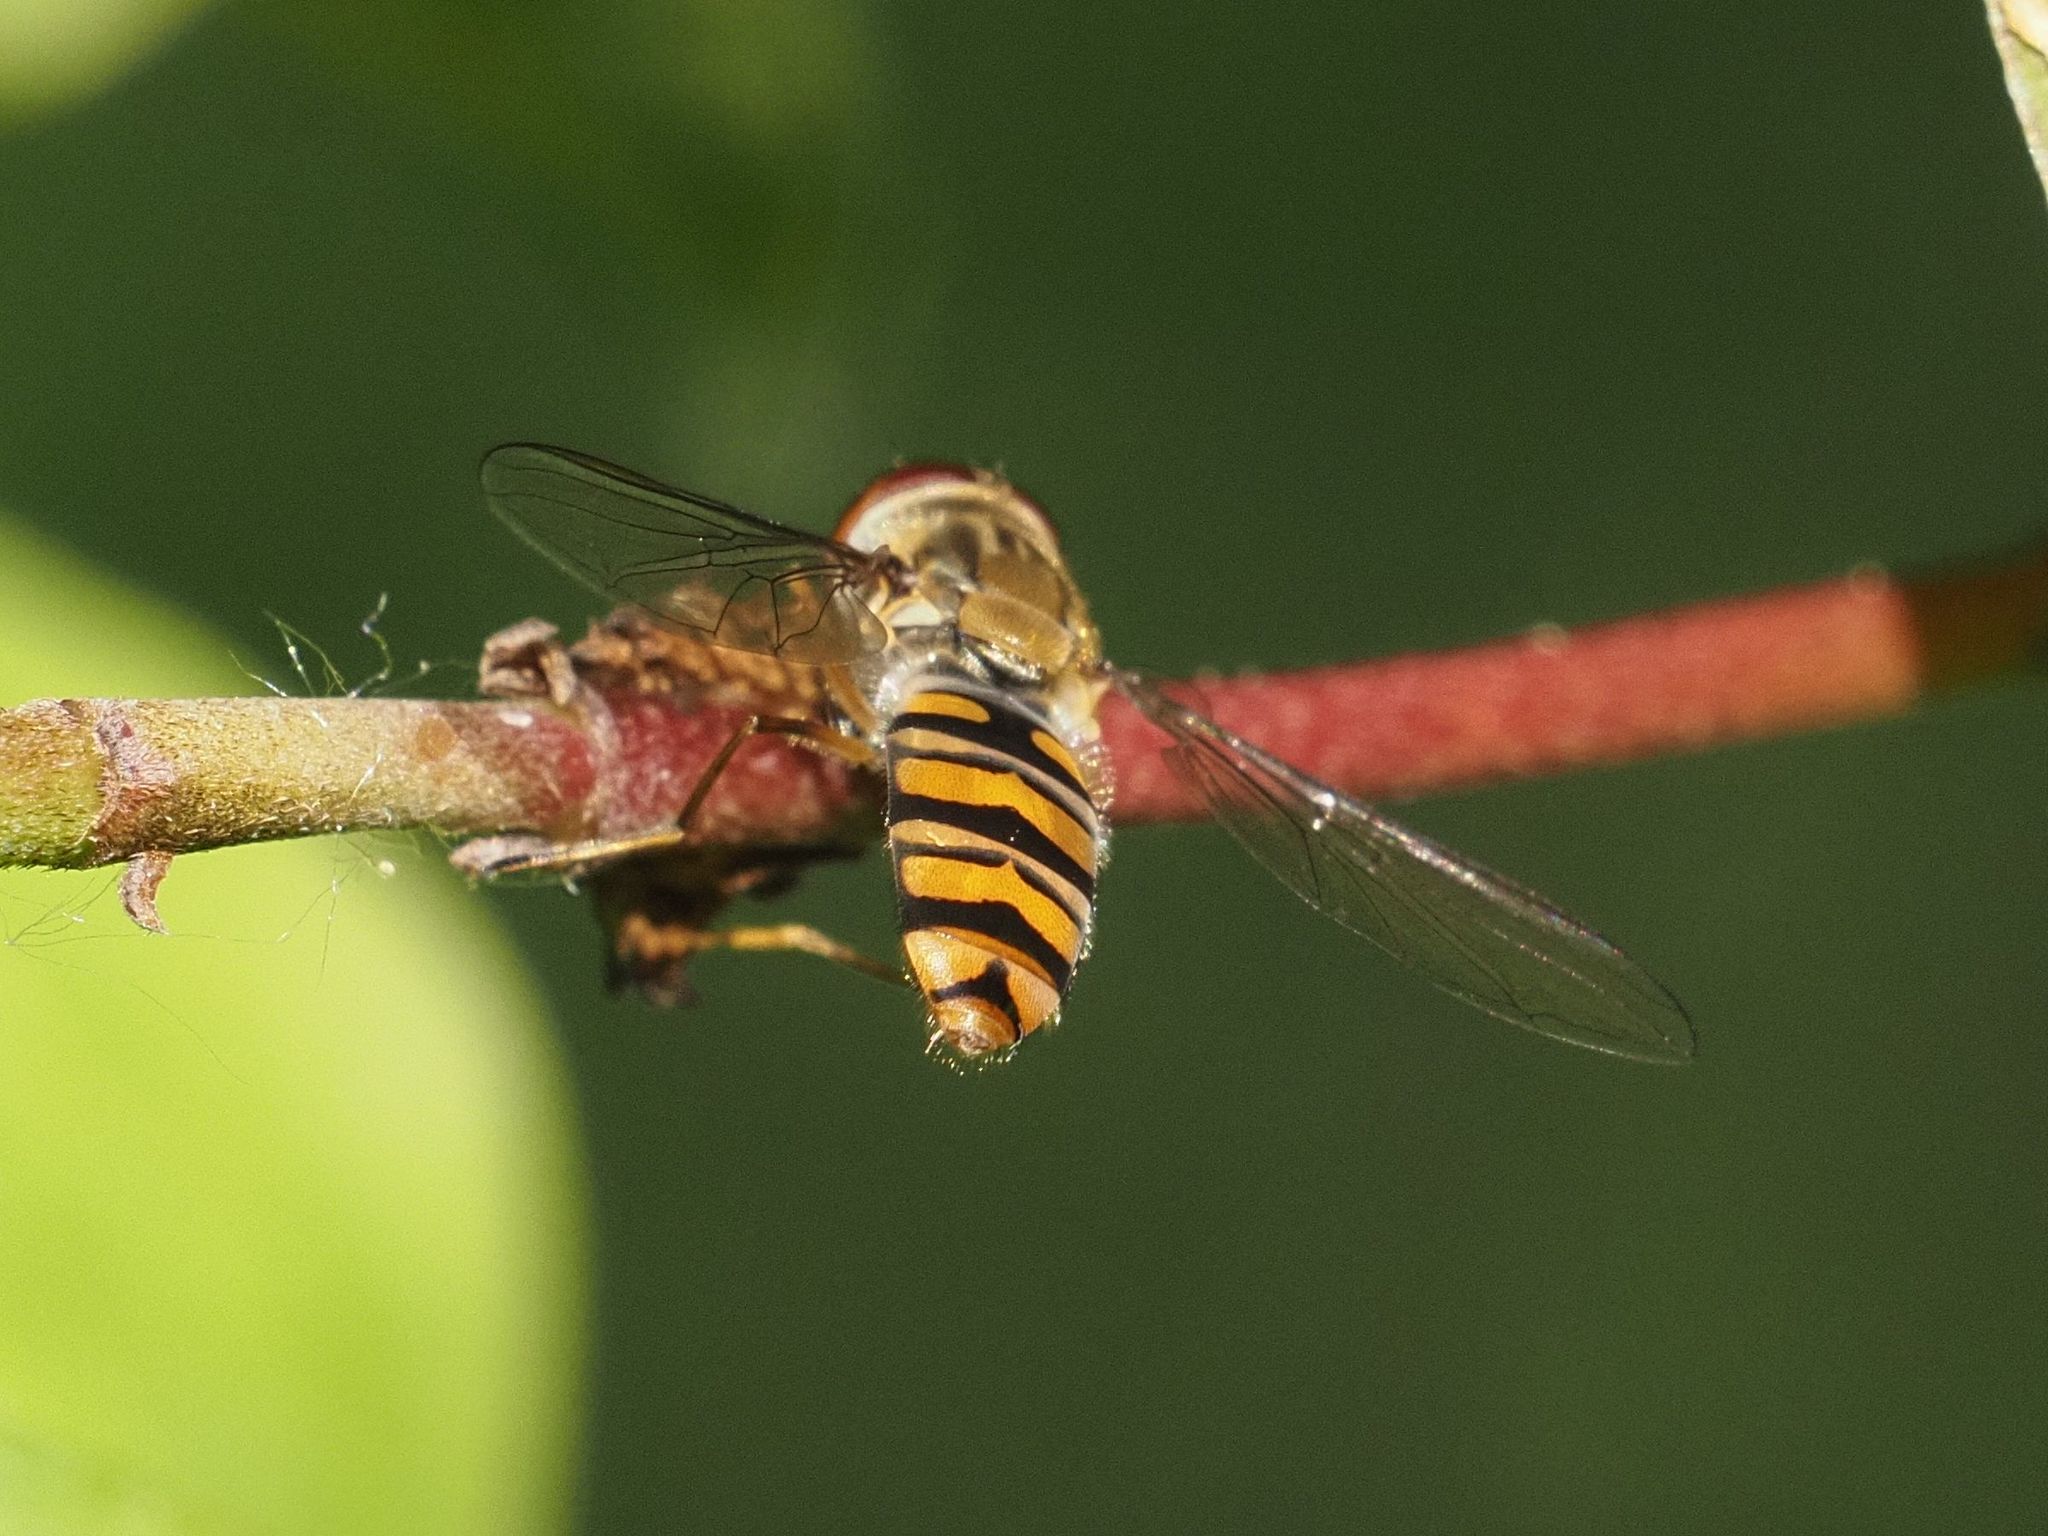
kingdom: Animalia
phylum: Arthropoda
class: Insecta
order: Diptera
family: Syrphidae
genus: Episyrphus
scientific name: Episyrphus balteatus
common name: Marmalade hoverfly
